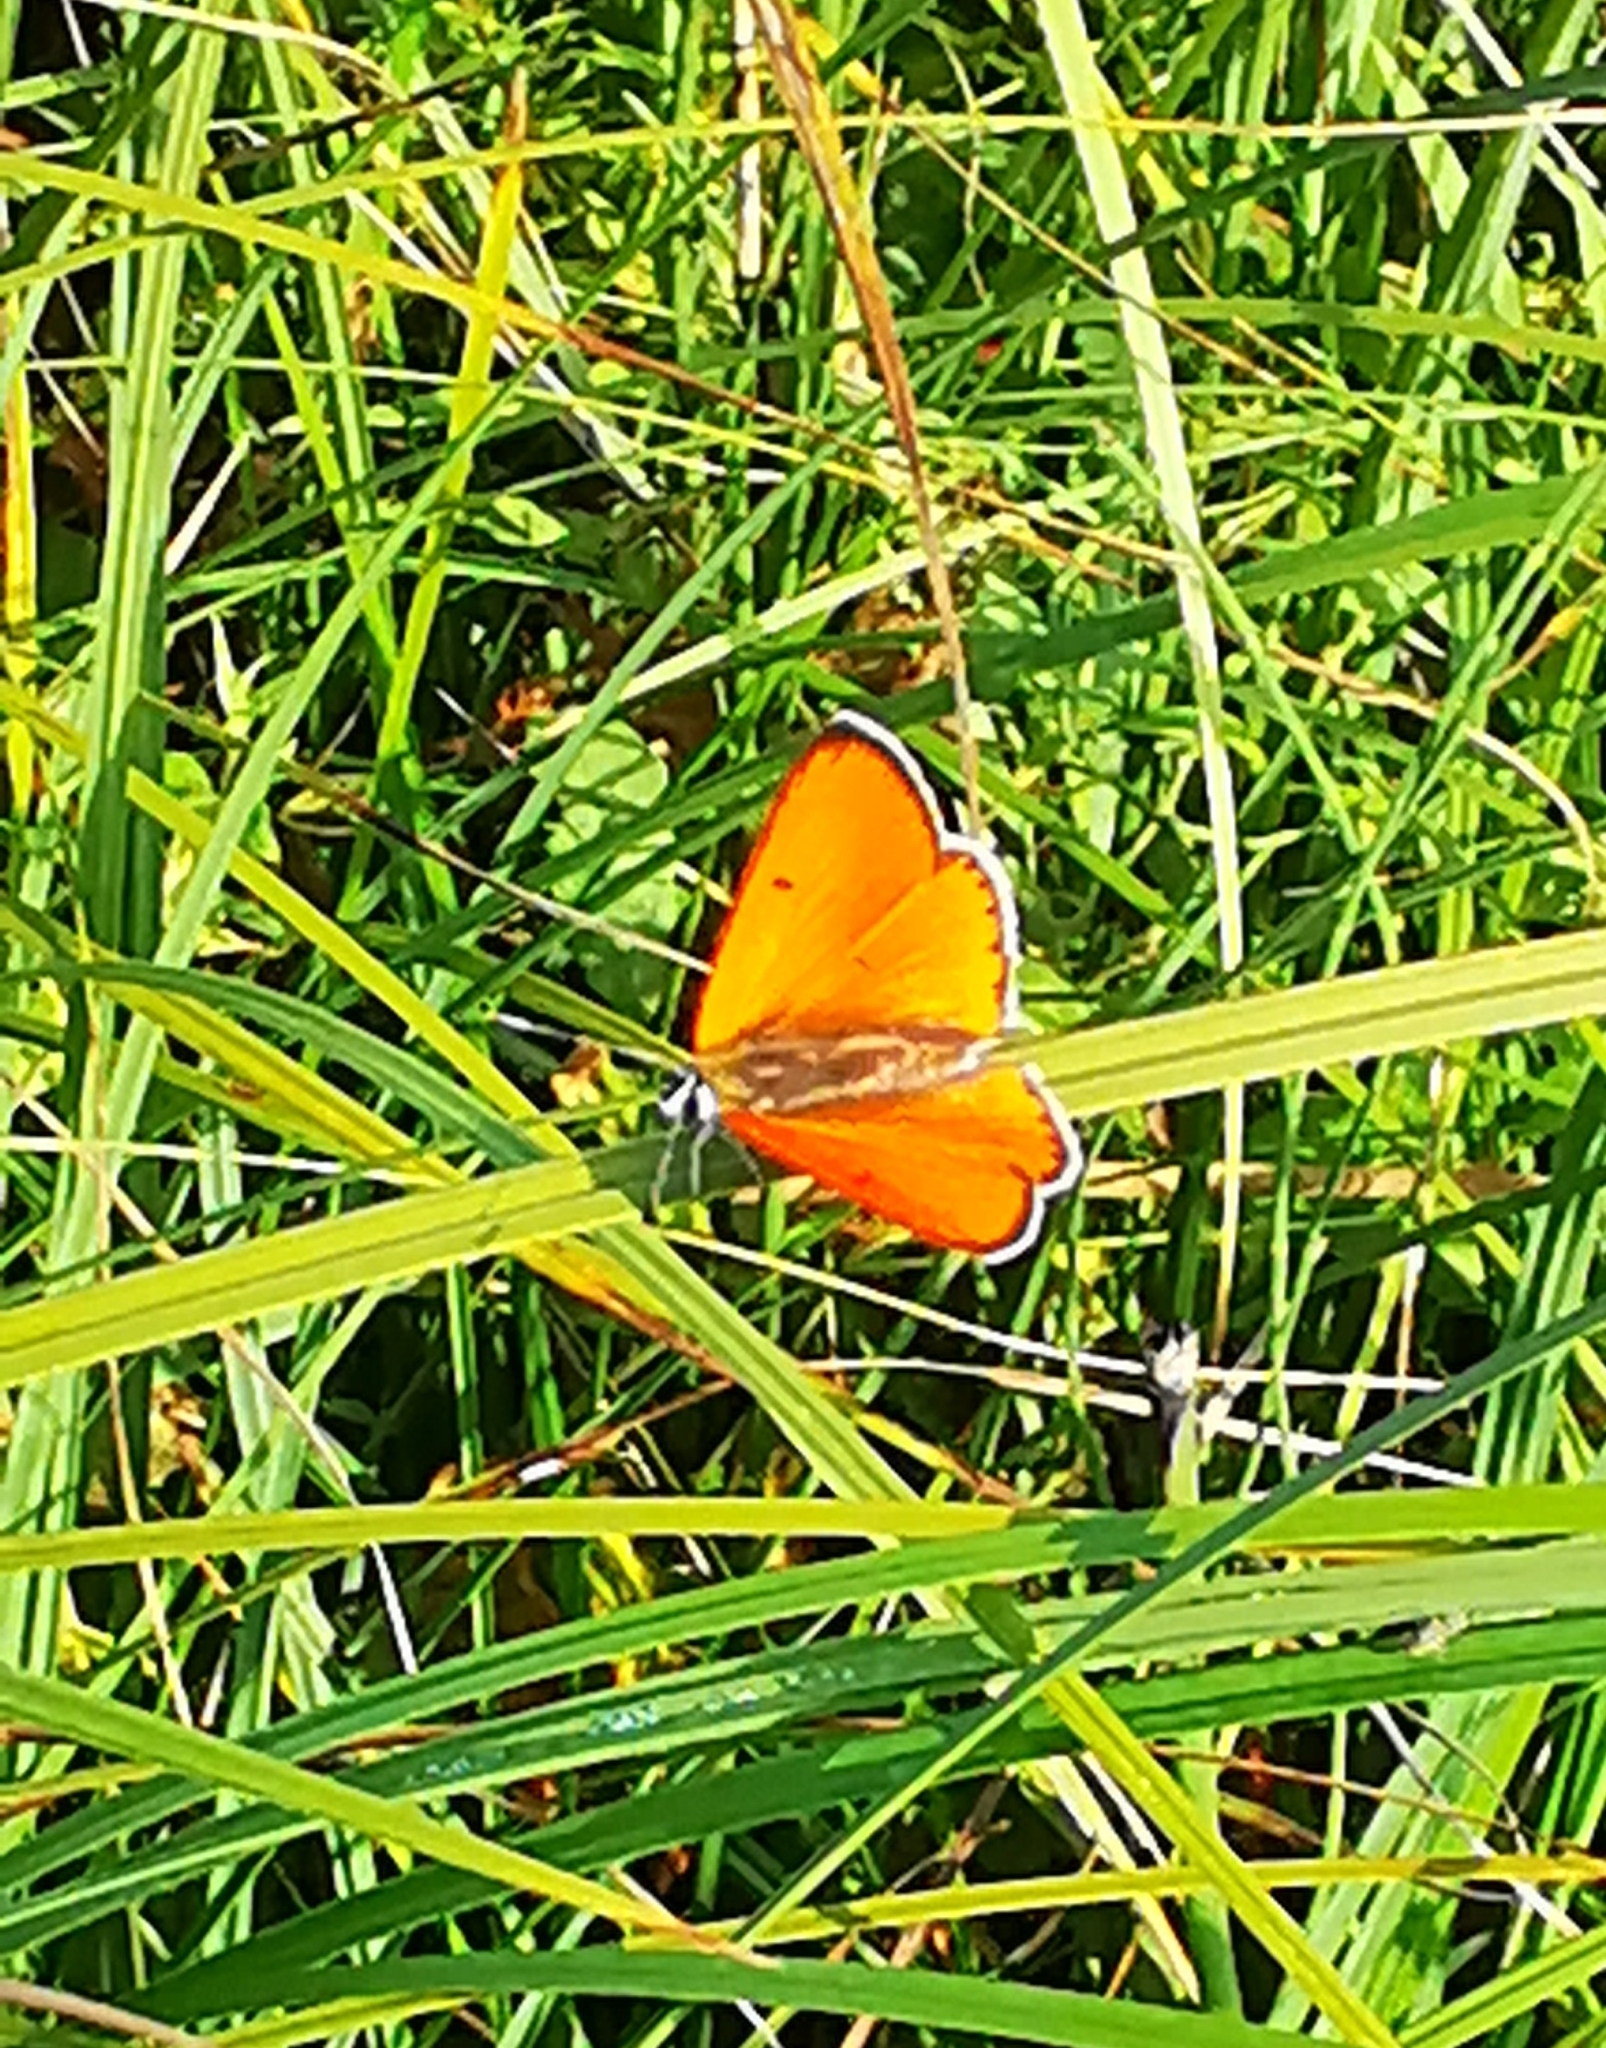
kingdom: Animalia
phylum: Arthropoda
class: Insecta
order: Lepidoptera
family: Lycaenidae
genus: Lycaena
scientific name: Lycaena dispar
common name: Large copper
